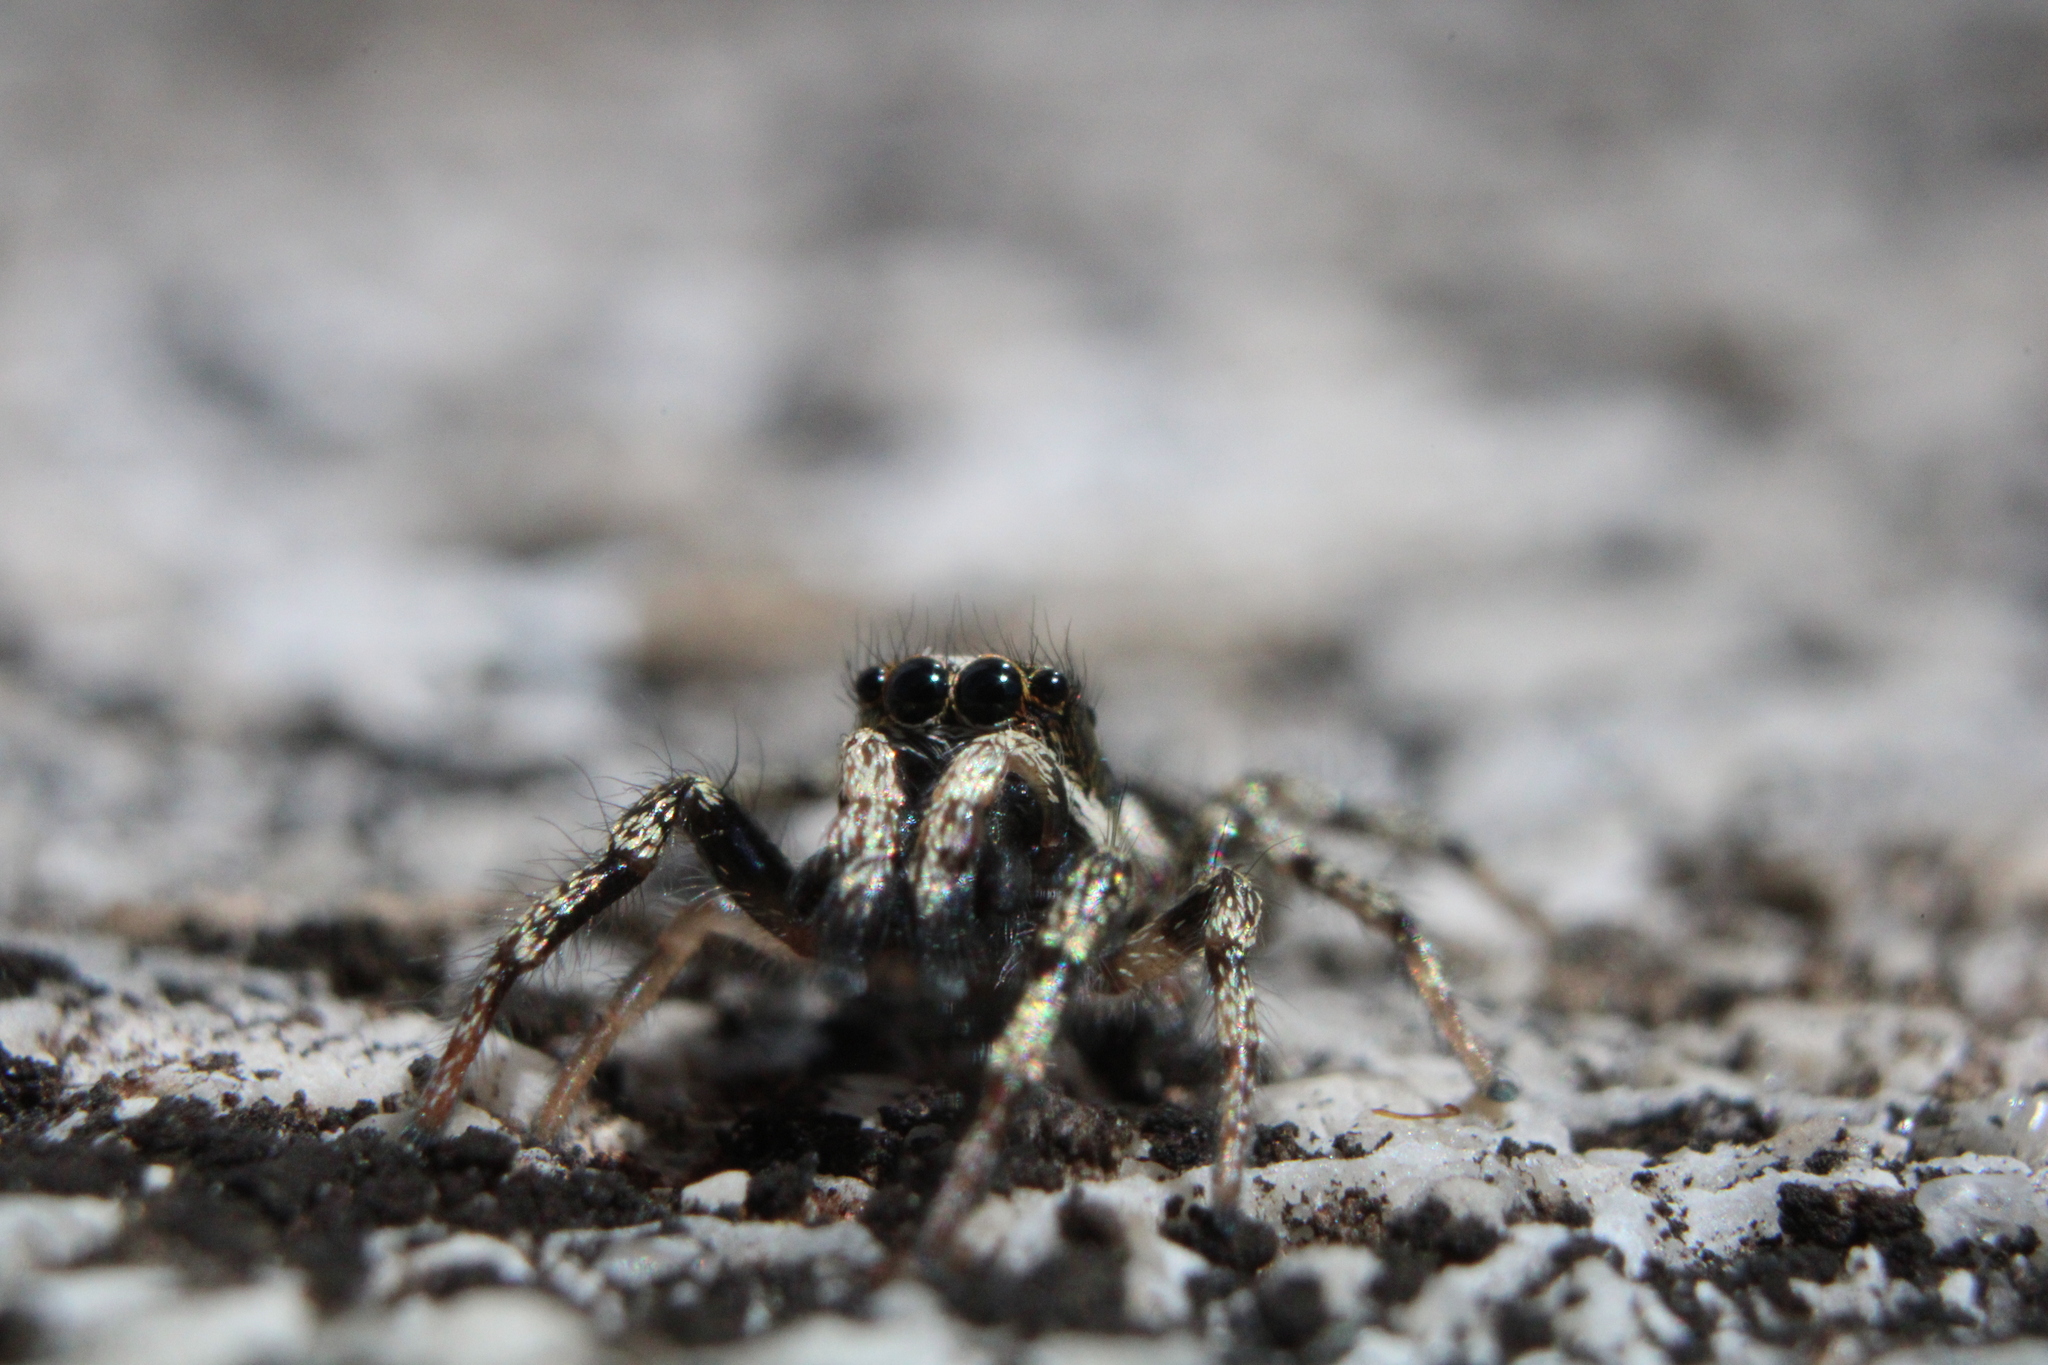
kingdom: Animalia
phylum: Arthropoda
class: Arachnida
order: Araneae
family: Salticidae
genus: Salticus
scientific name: Salticus scenicus
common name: Zebra jumper
